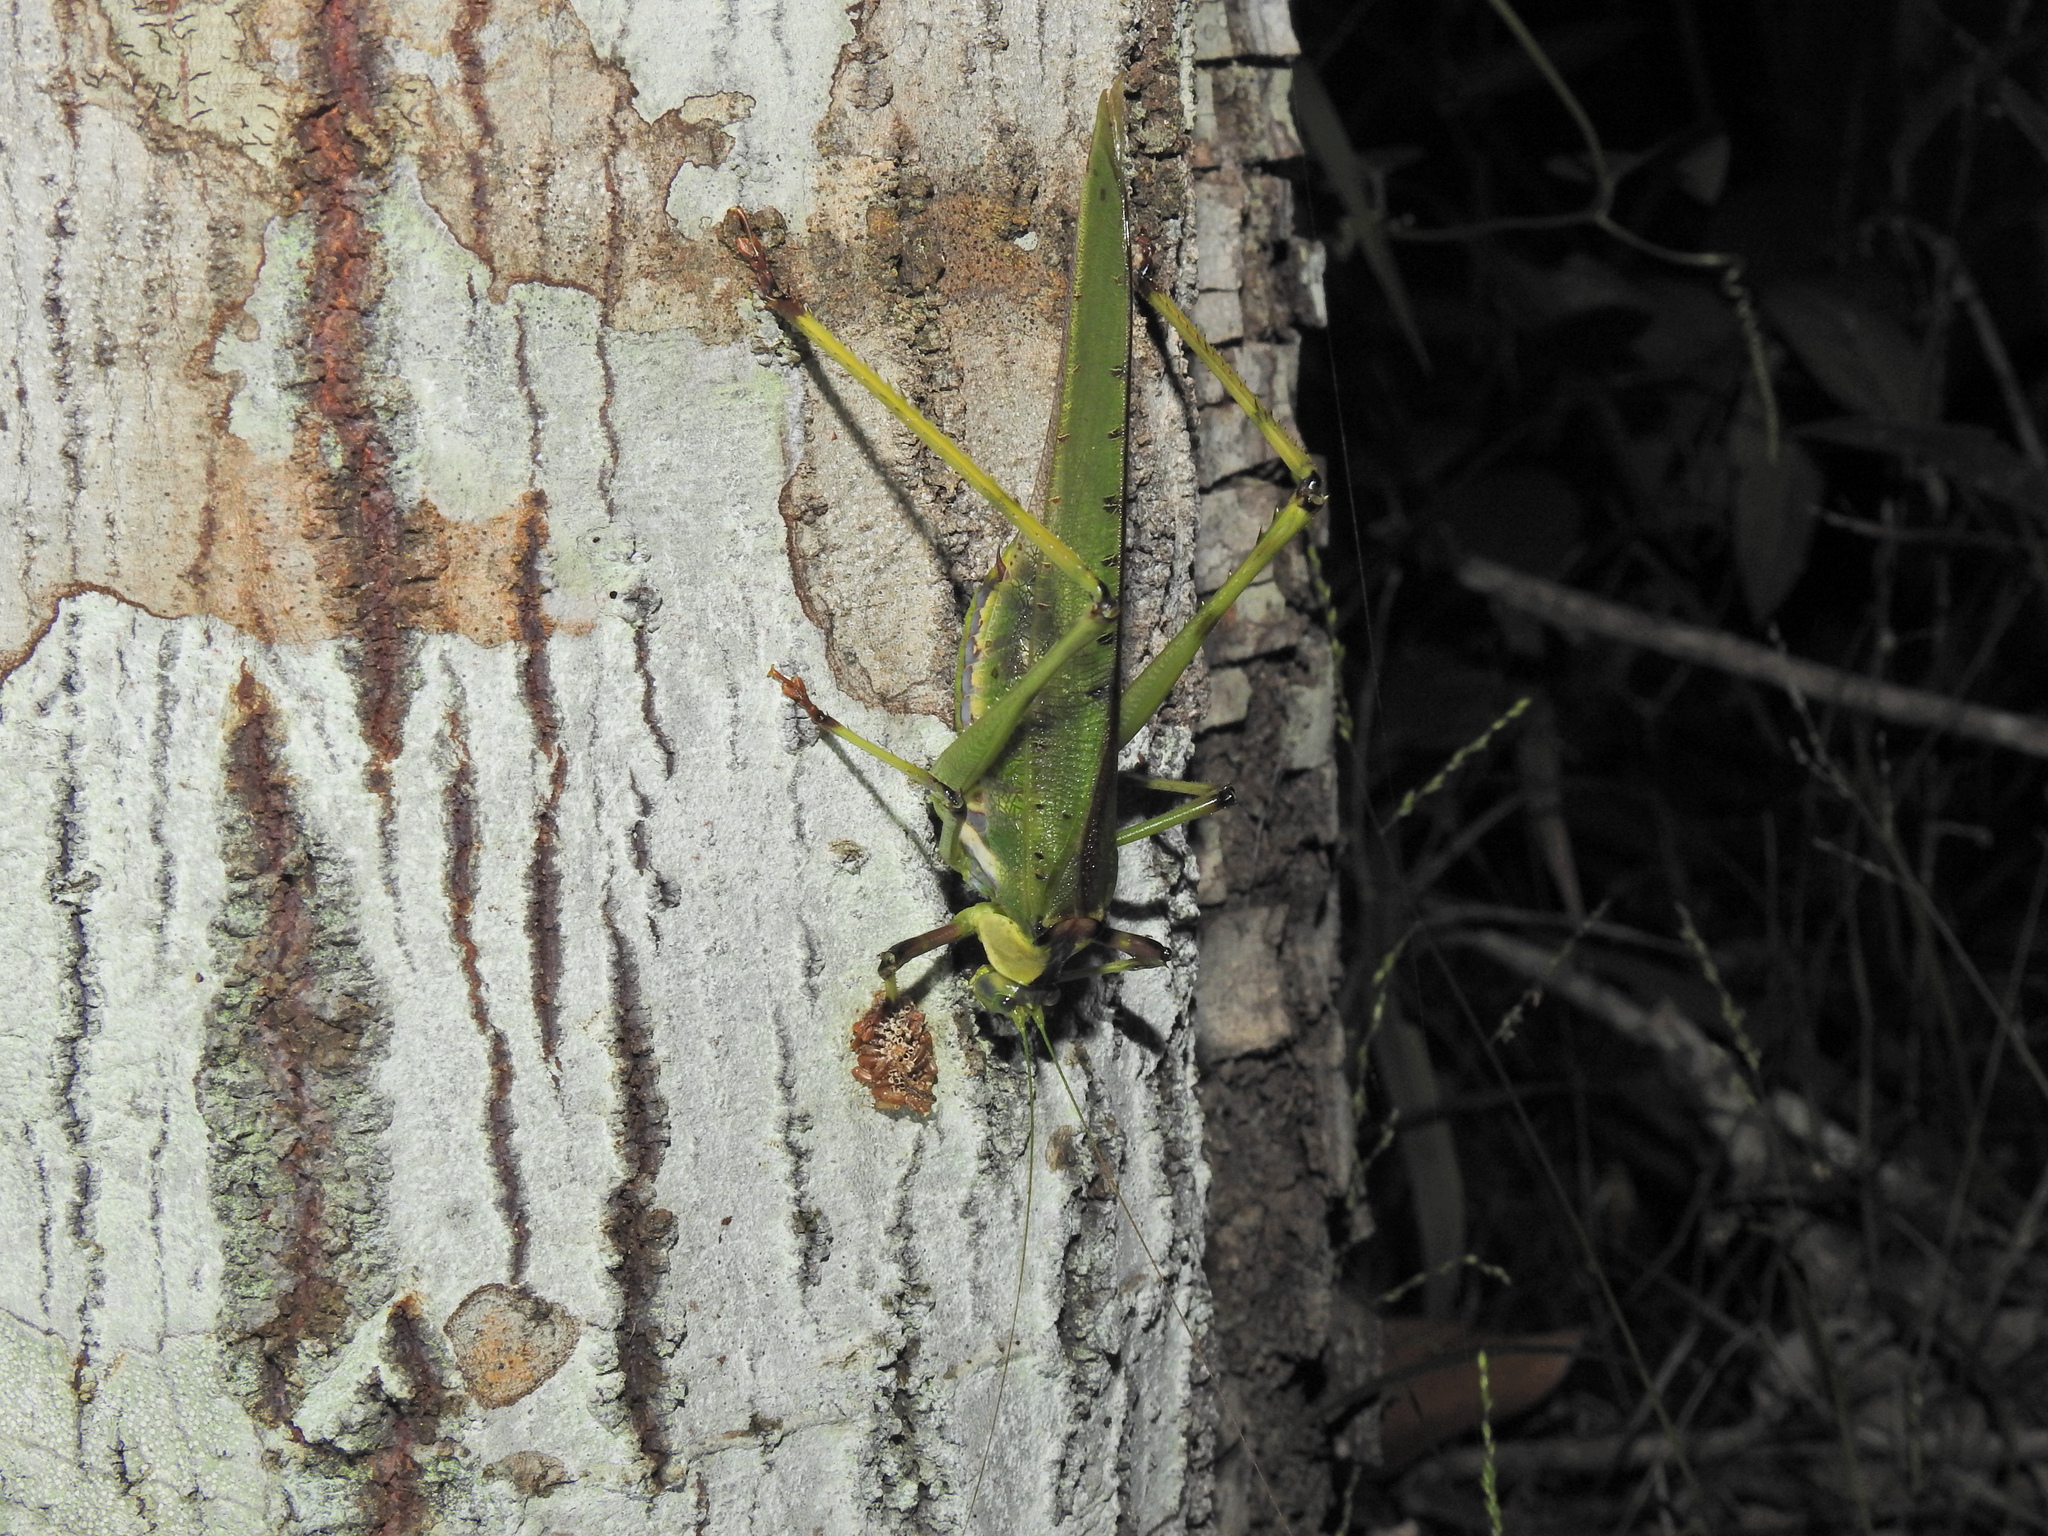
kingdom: Animalia
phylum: Arthropoda
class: Insecta
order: Orthoptera
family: Tettigoniidae
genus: Ephippitytha
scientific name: Ephippitytha trigintiduoguttata
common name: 32-spotted katydid
